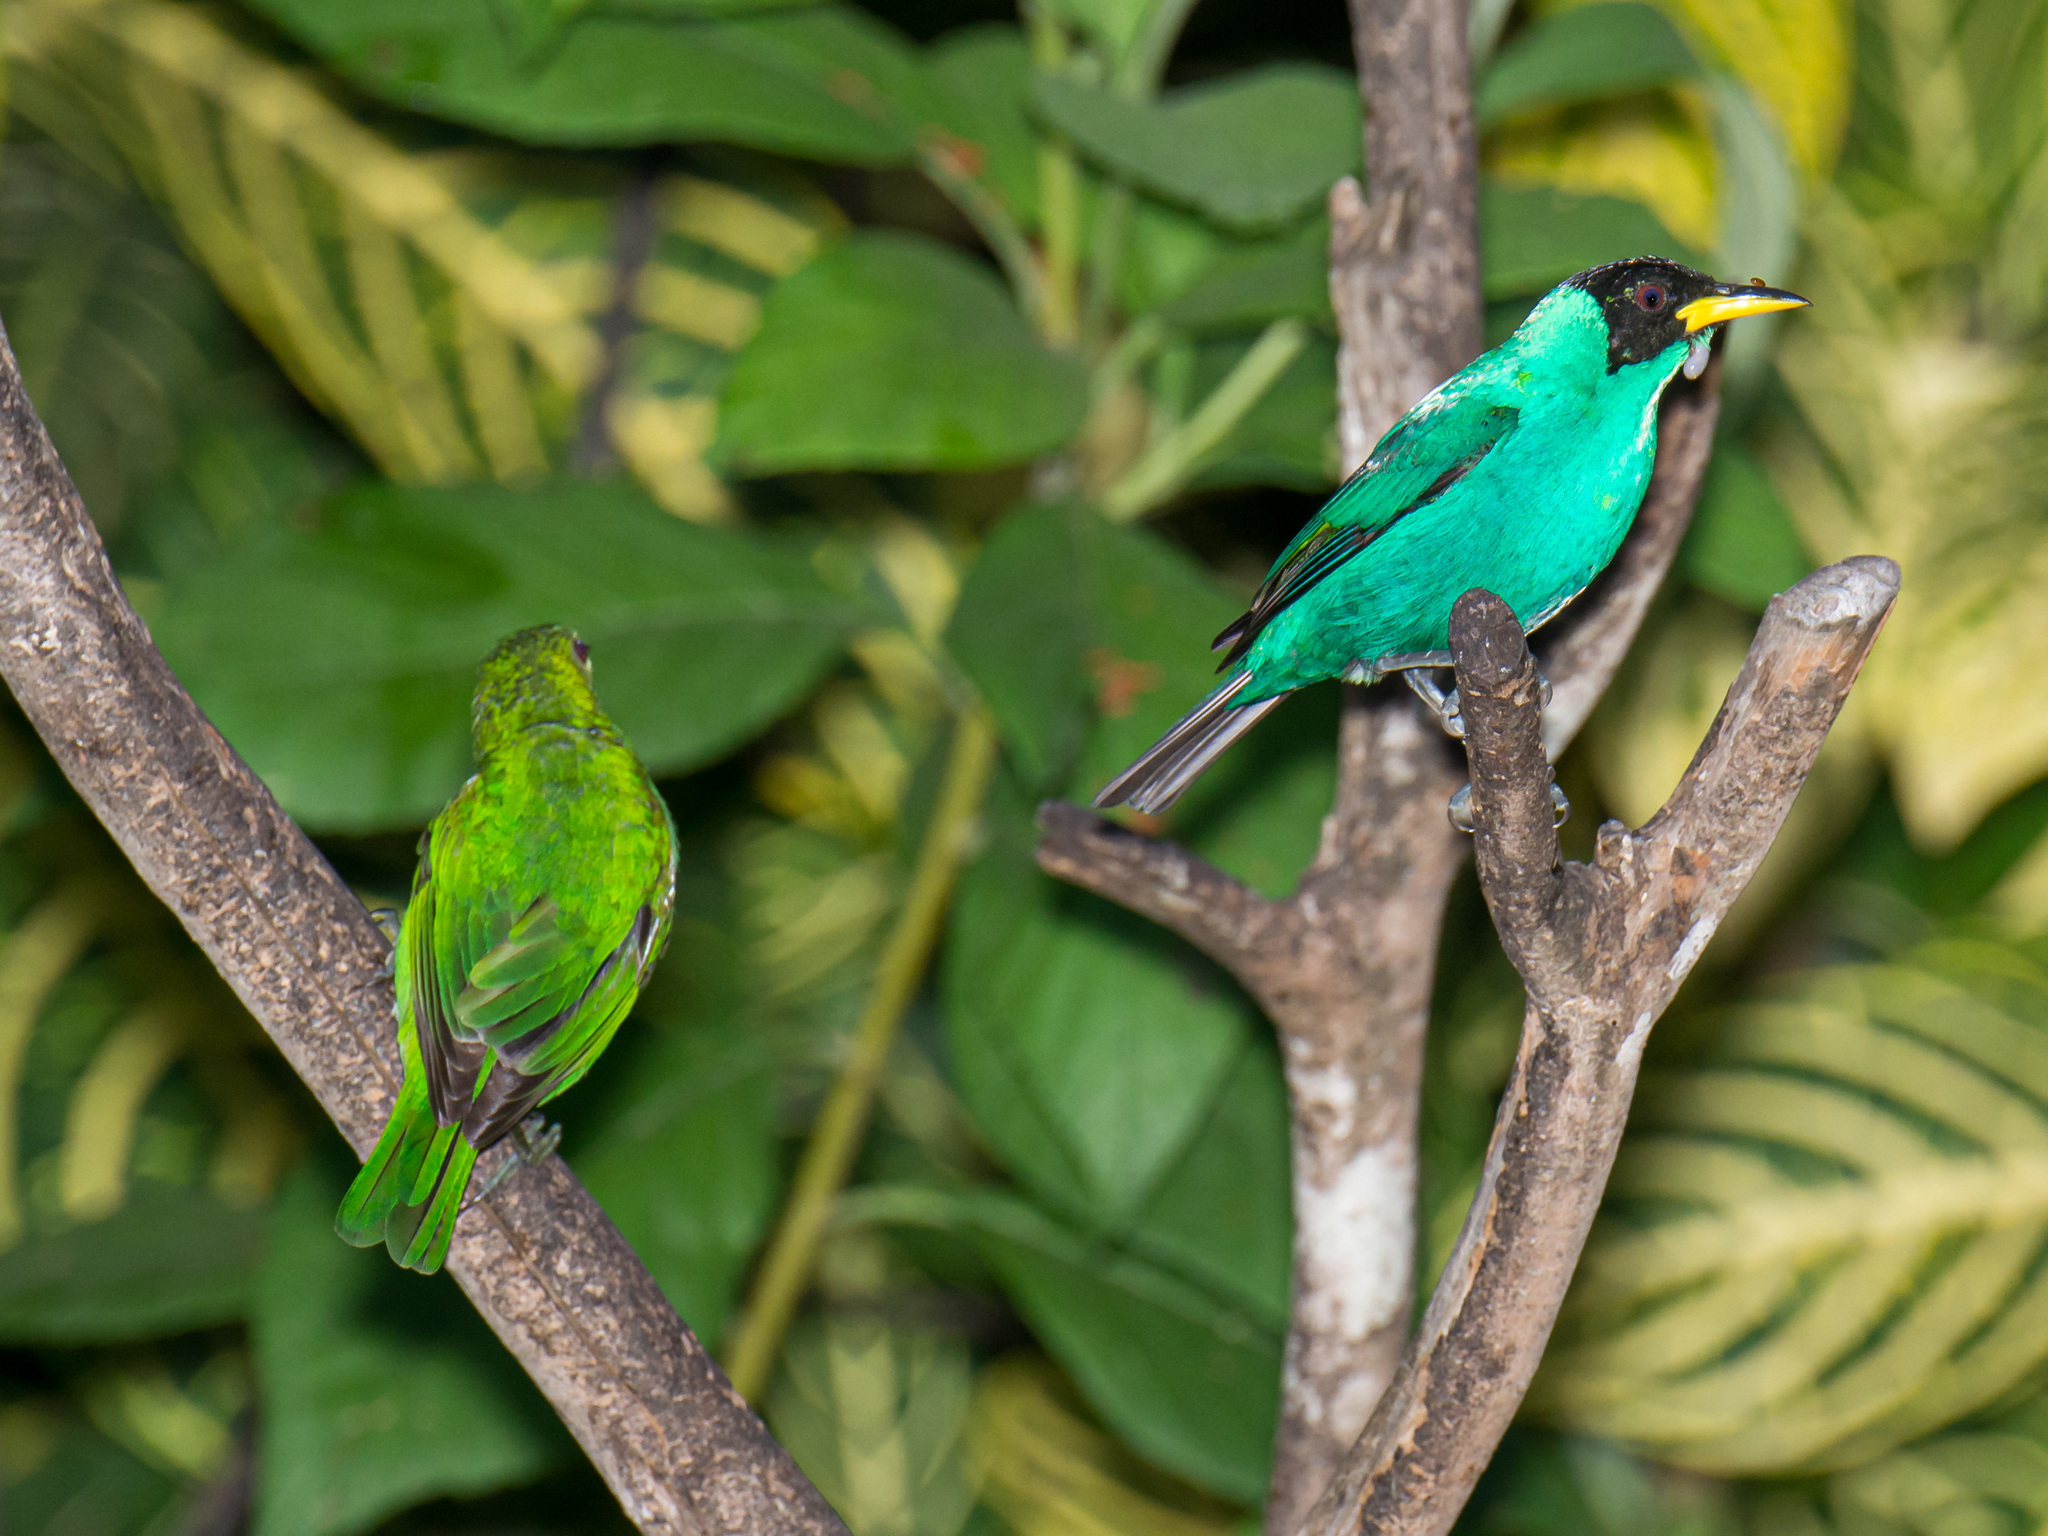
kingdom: Animalia
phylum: Chordata
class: Aves
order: Passeriformes
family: Thraupidae
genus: Chlorophanes
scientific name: Chlorophanes spiza
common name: Green honeycreeper
